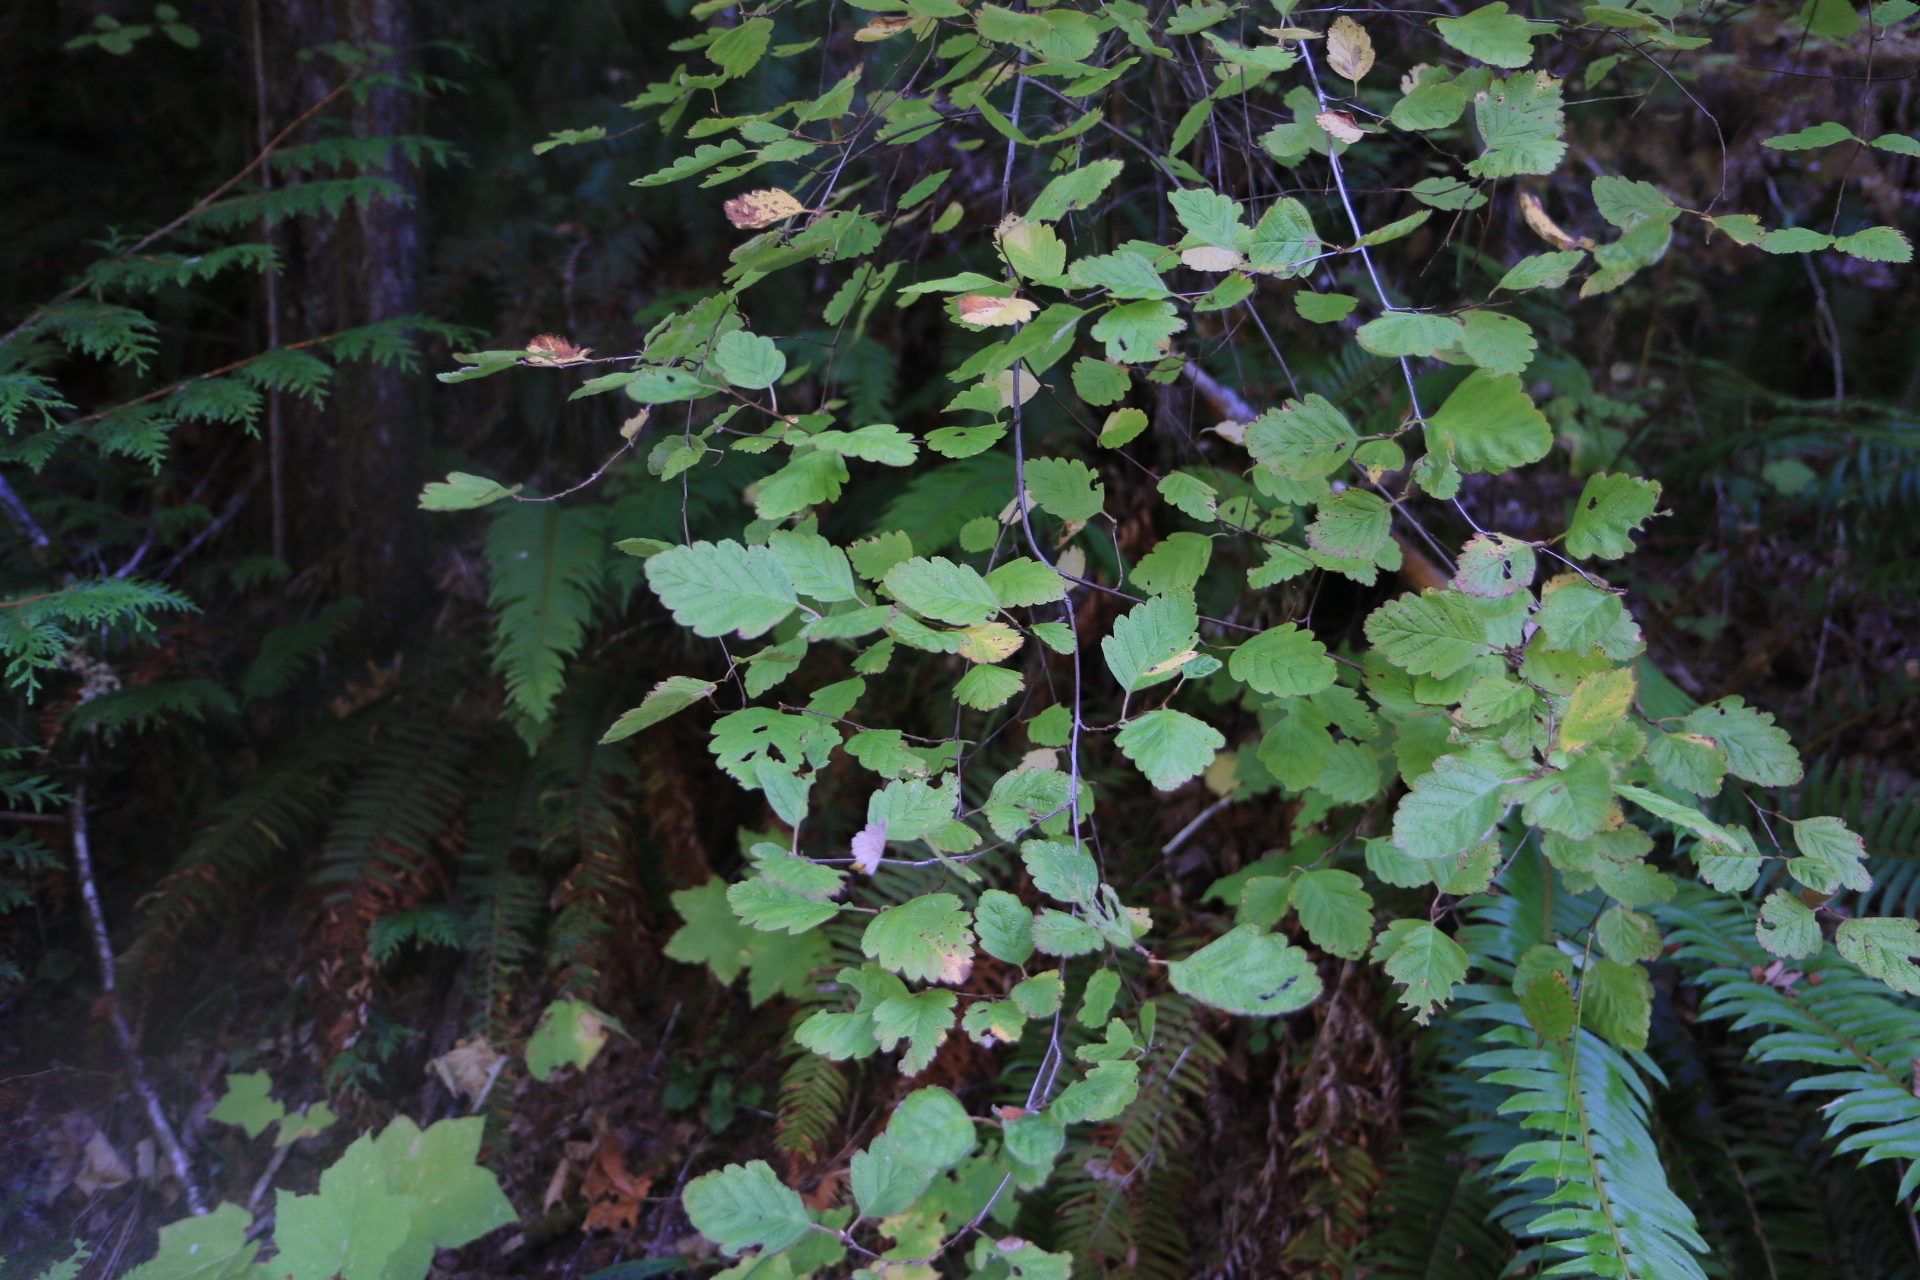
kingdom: Plantae
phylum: Tracheophyta
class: Magnoliopsida
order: Rosales
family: Rosaceae
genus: Holodiscus
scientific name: Holodiscus discolor
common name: Oceanspray
